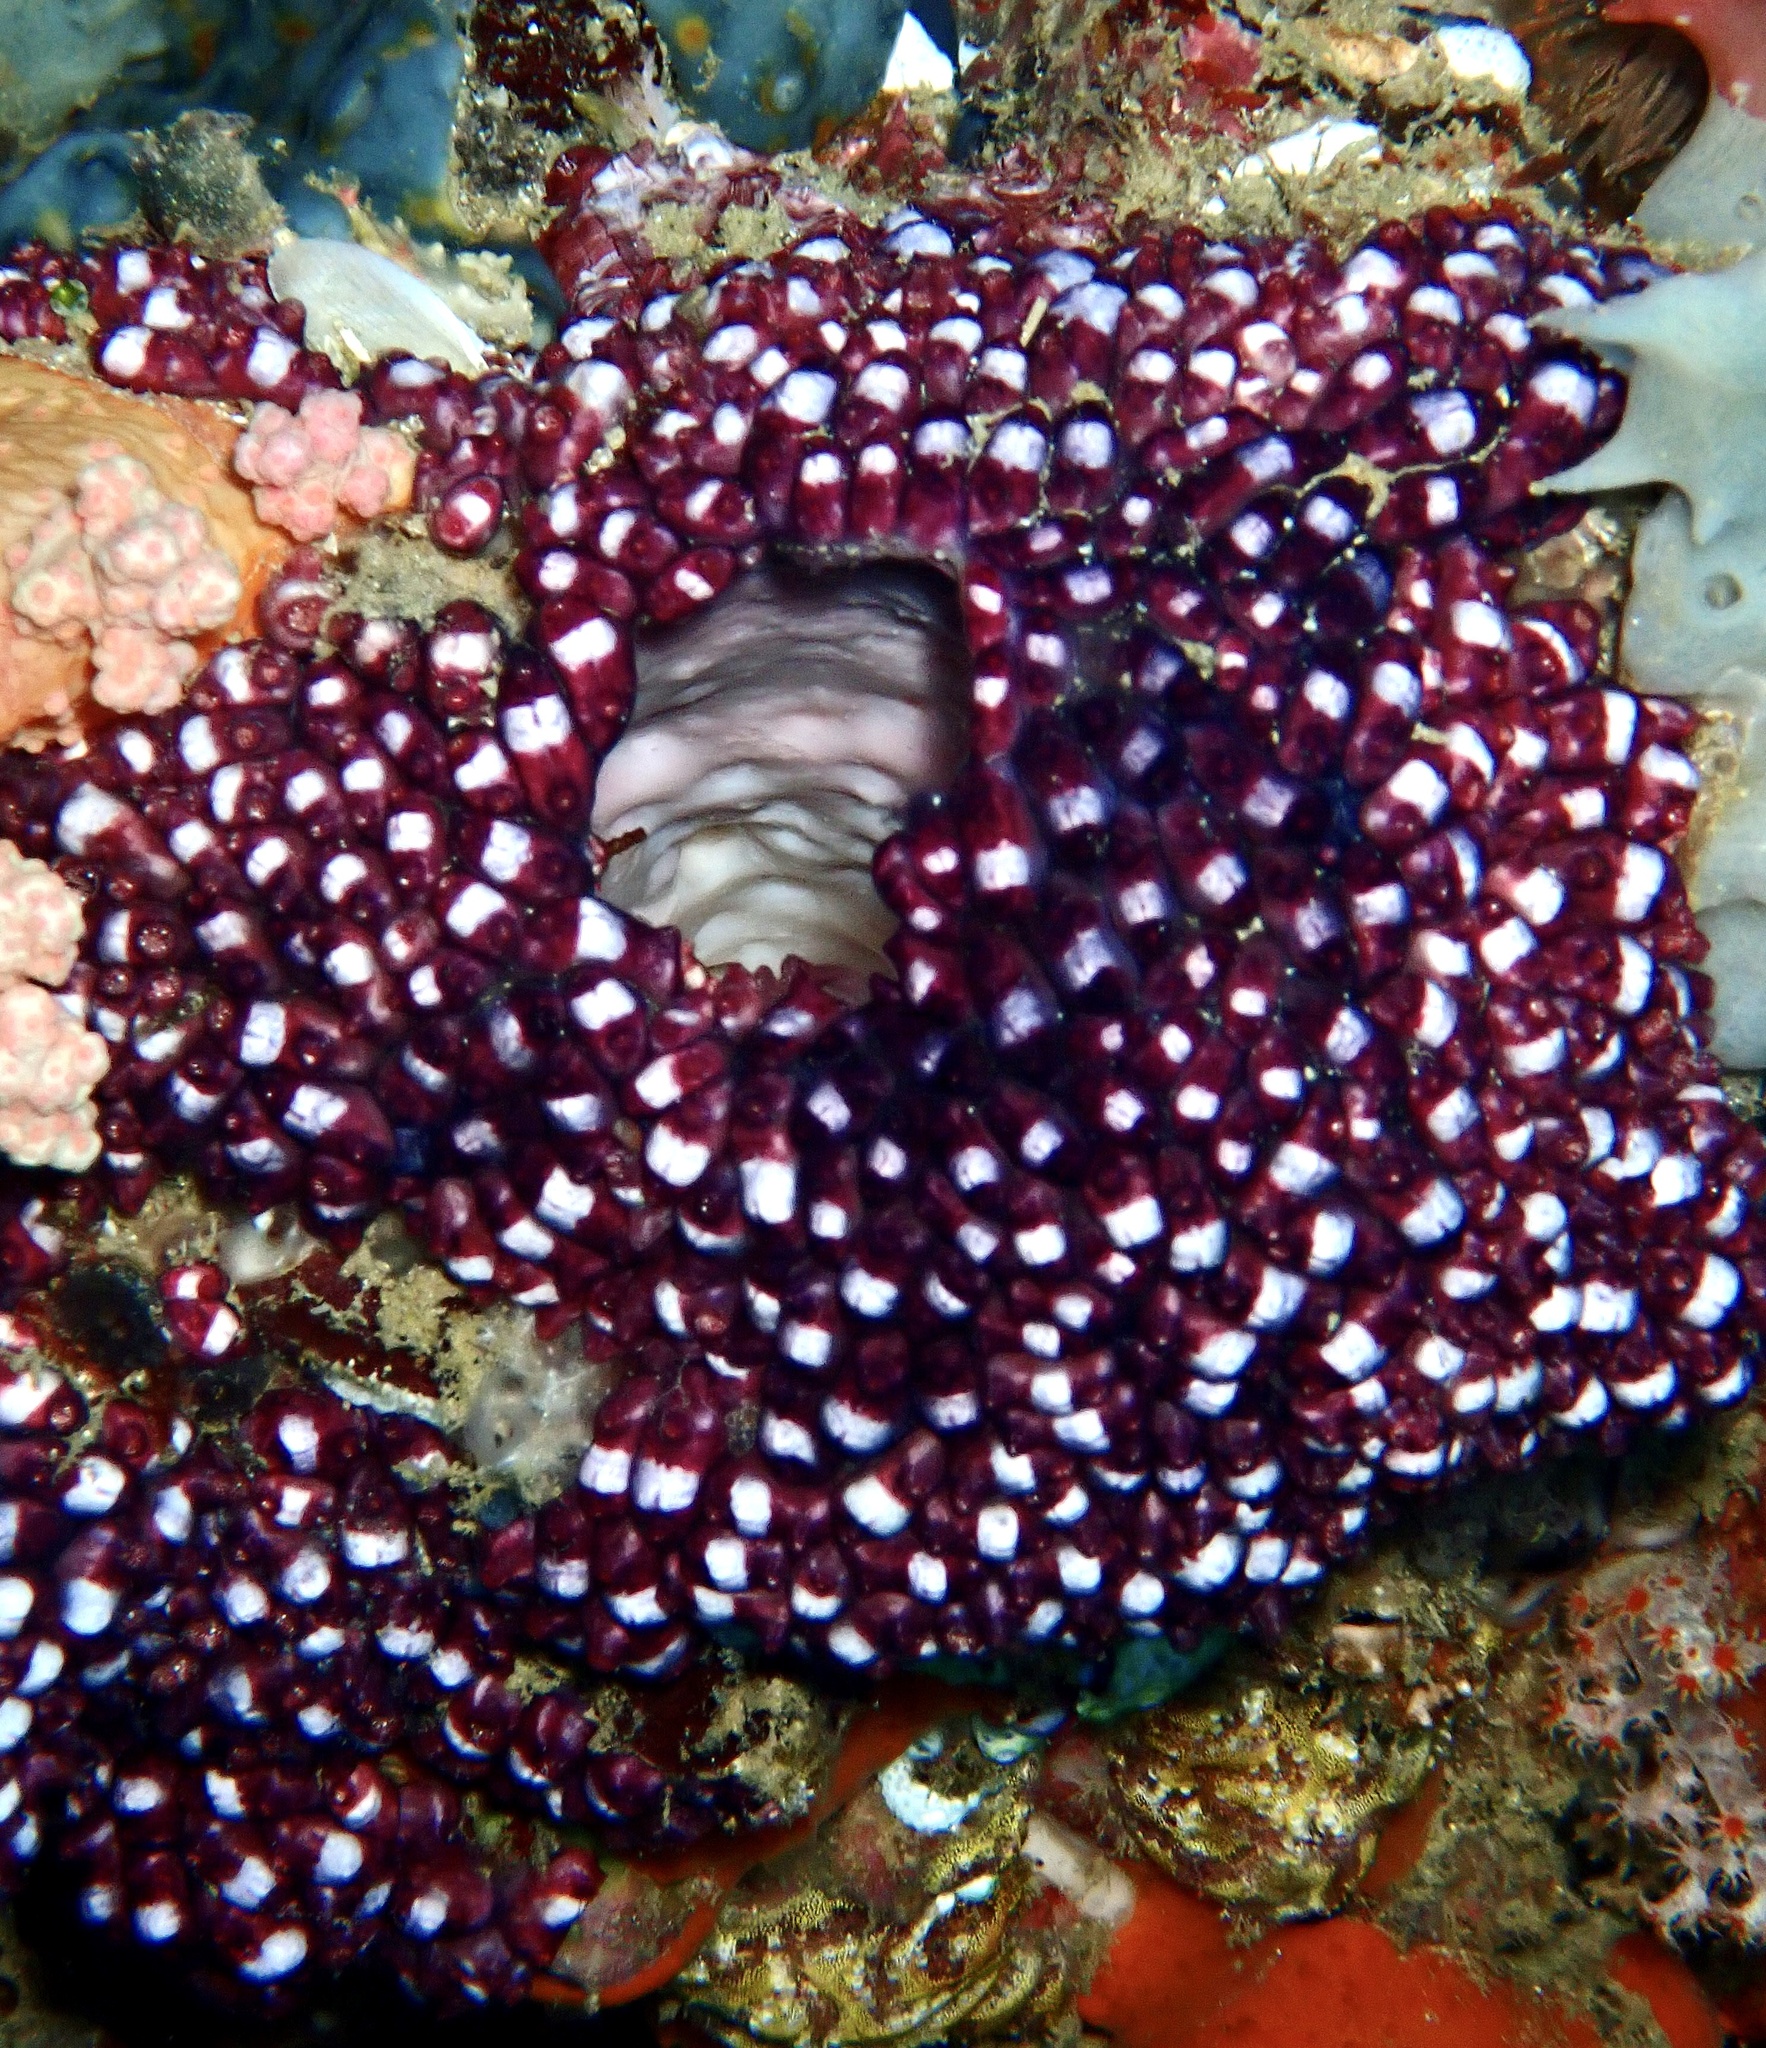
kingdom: Animalia
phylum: Chordata
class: Ascidiacea
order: Stolidobranchia
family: Styelidae
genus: Eusynstyela
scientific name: Eusynstyela latericius
